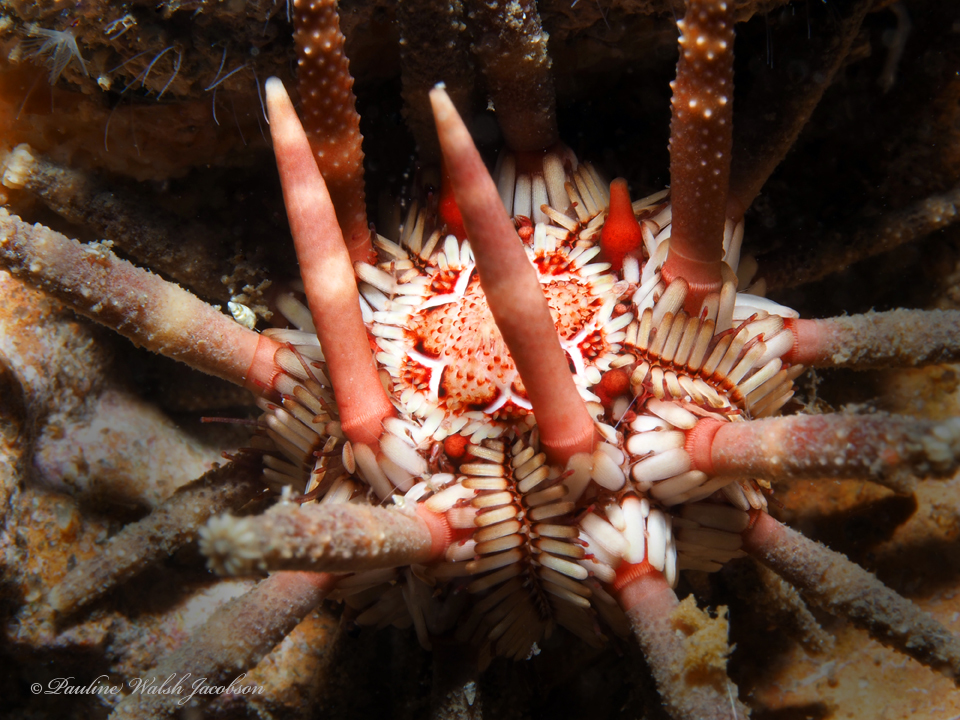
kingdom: Animalia
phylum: Echinodermata
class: Echinoidea
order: Cidaroida
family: Cidaridae
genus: Eucidaris
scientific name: Eucidaris tribuloides
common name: Slate pencil urchin
